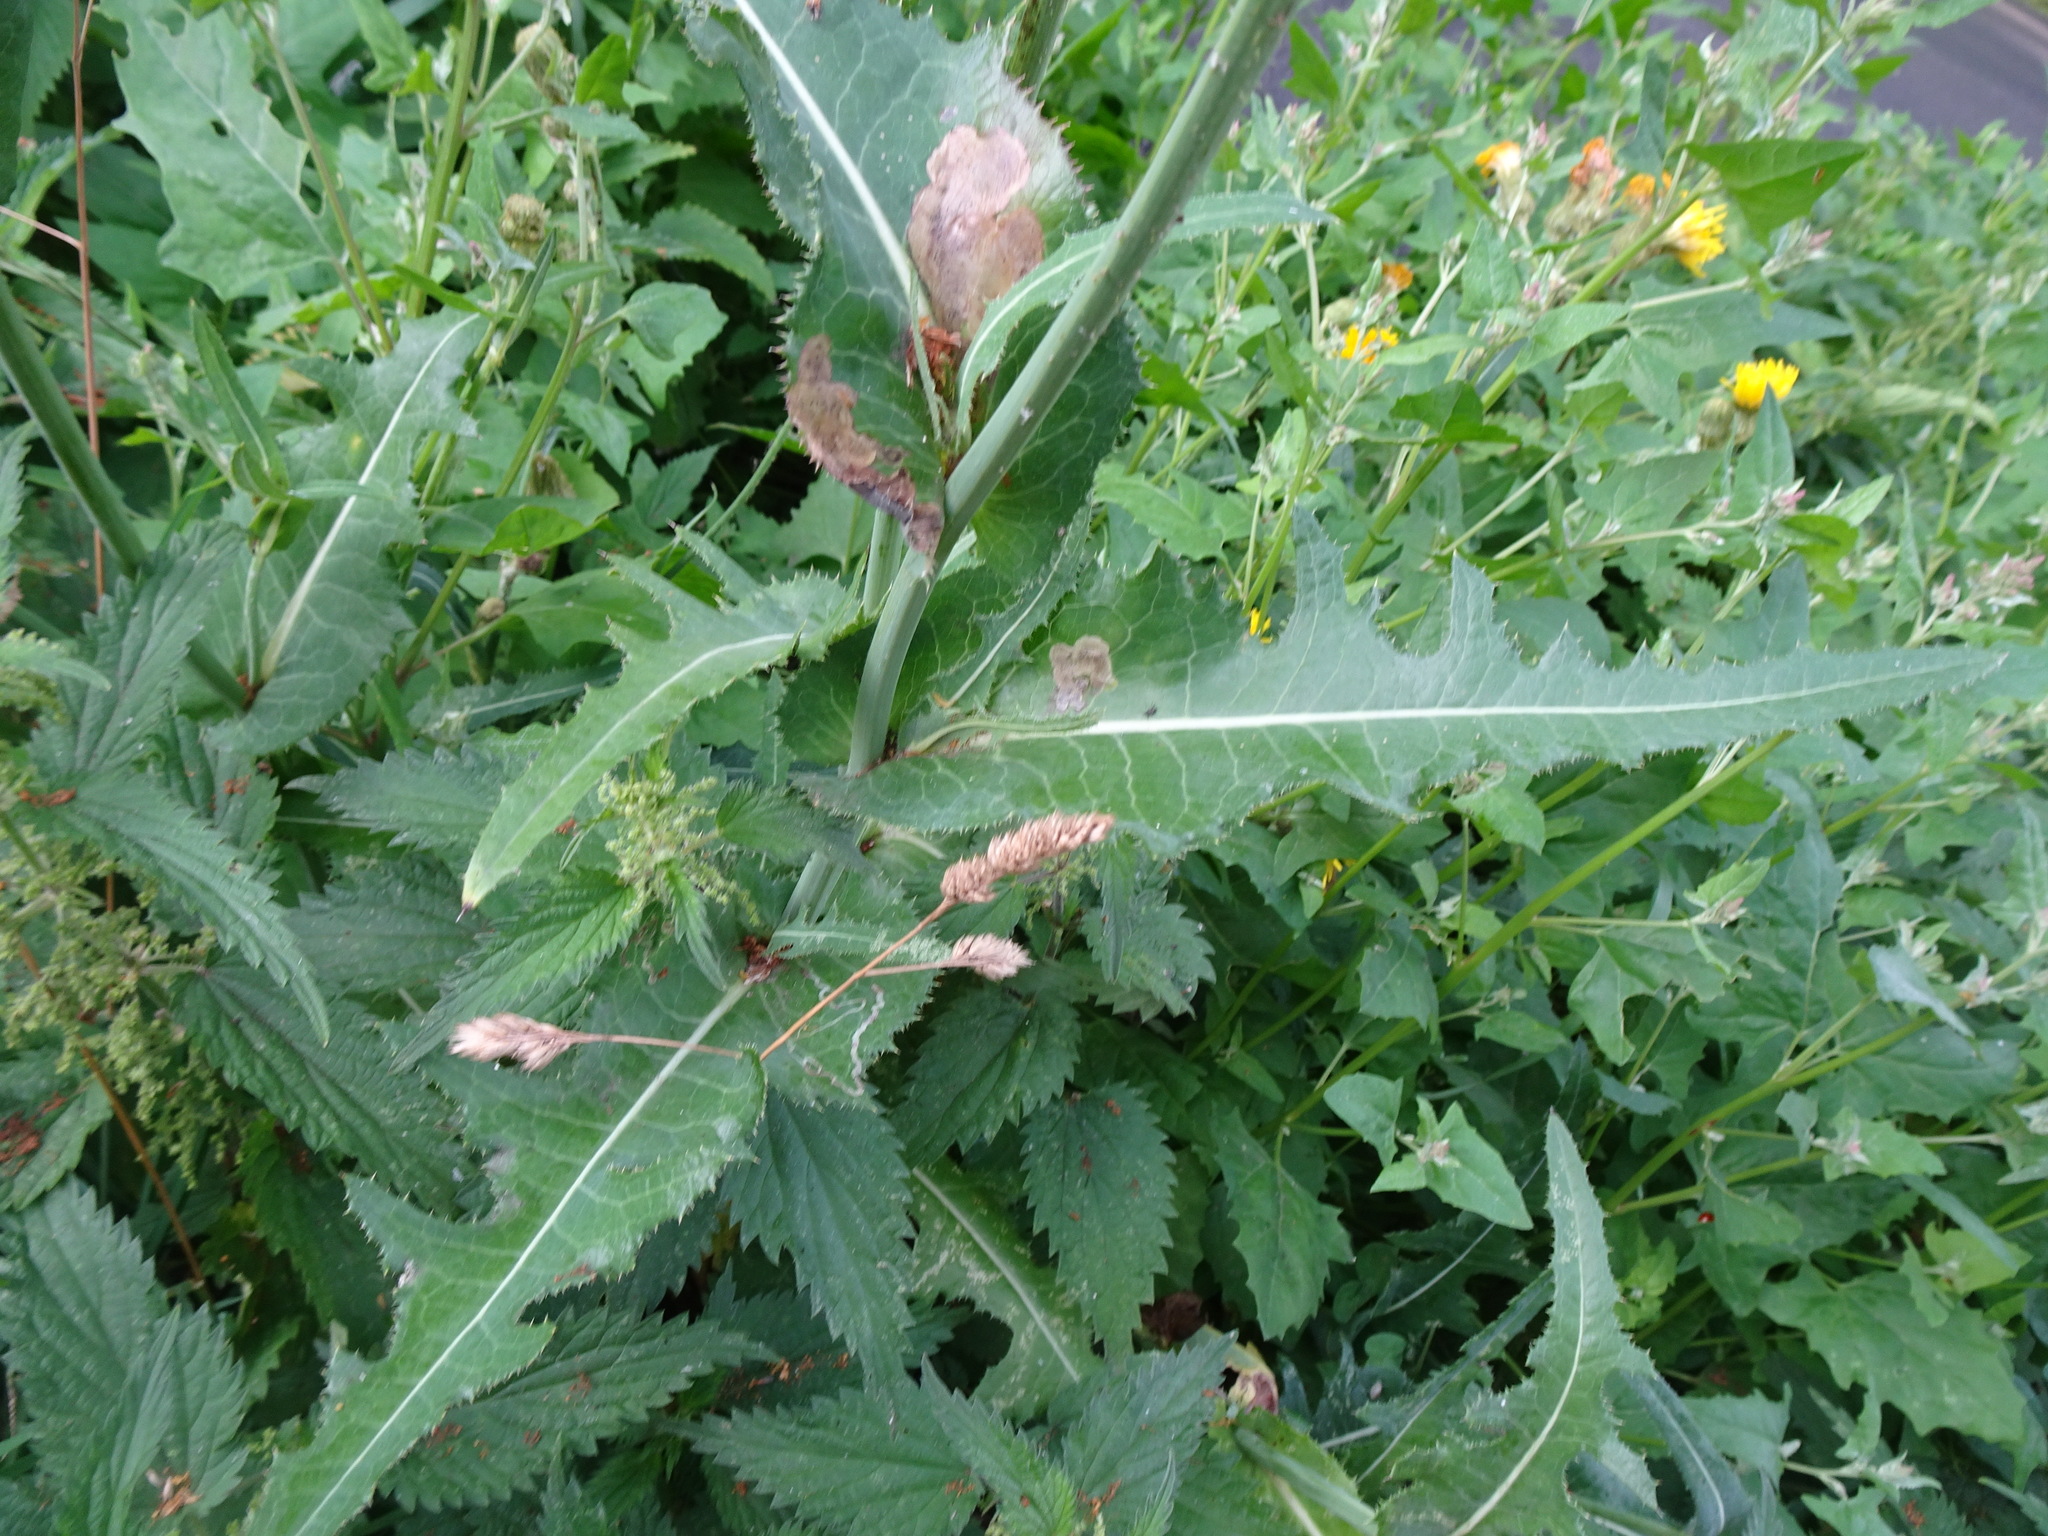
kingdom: Plantae
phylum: Tracheophyta
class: Magnoliopsida
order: Asterales
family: Asteraceae
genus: Sonchus
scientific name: Sonchus arvensis
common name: Perennial sow-thistle
